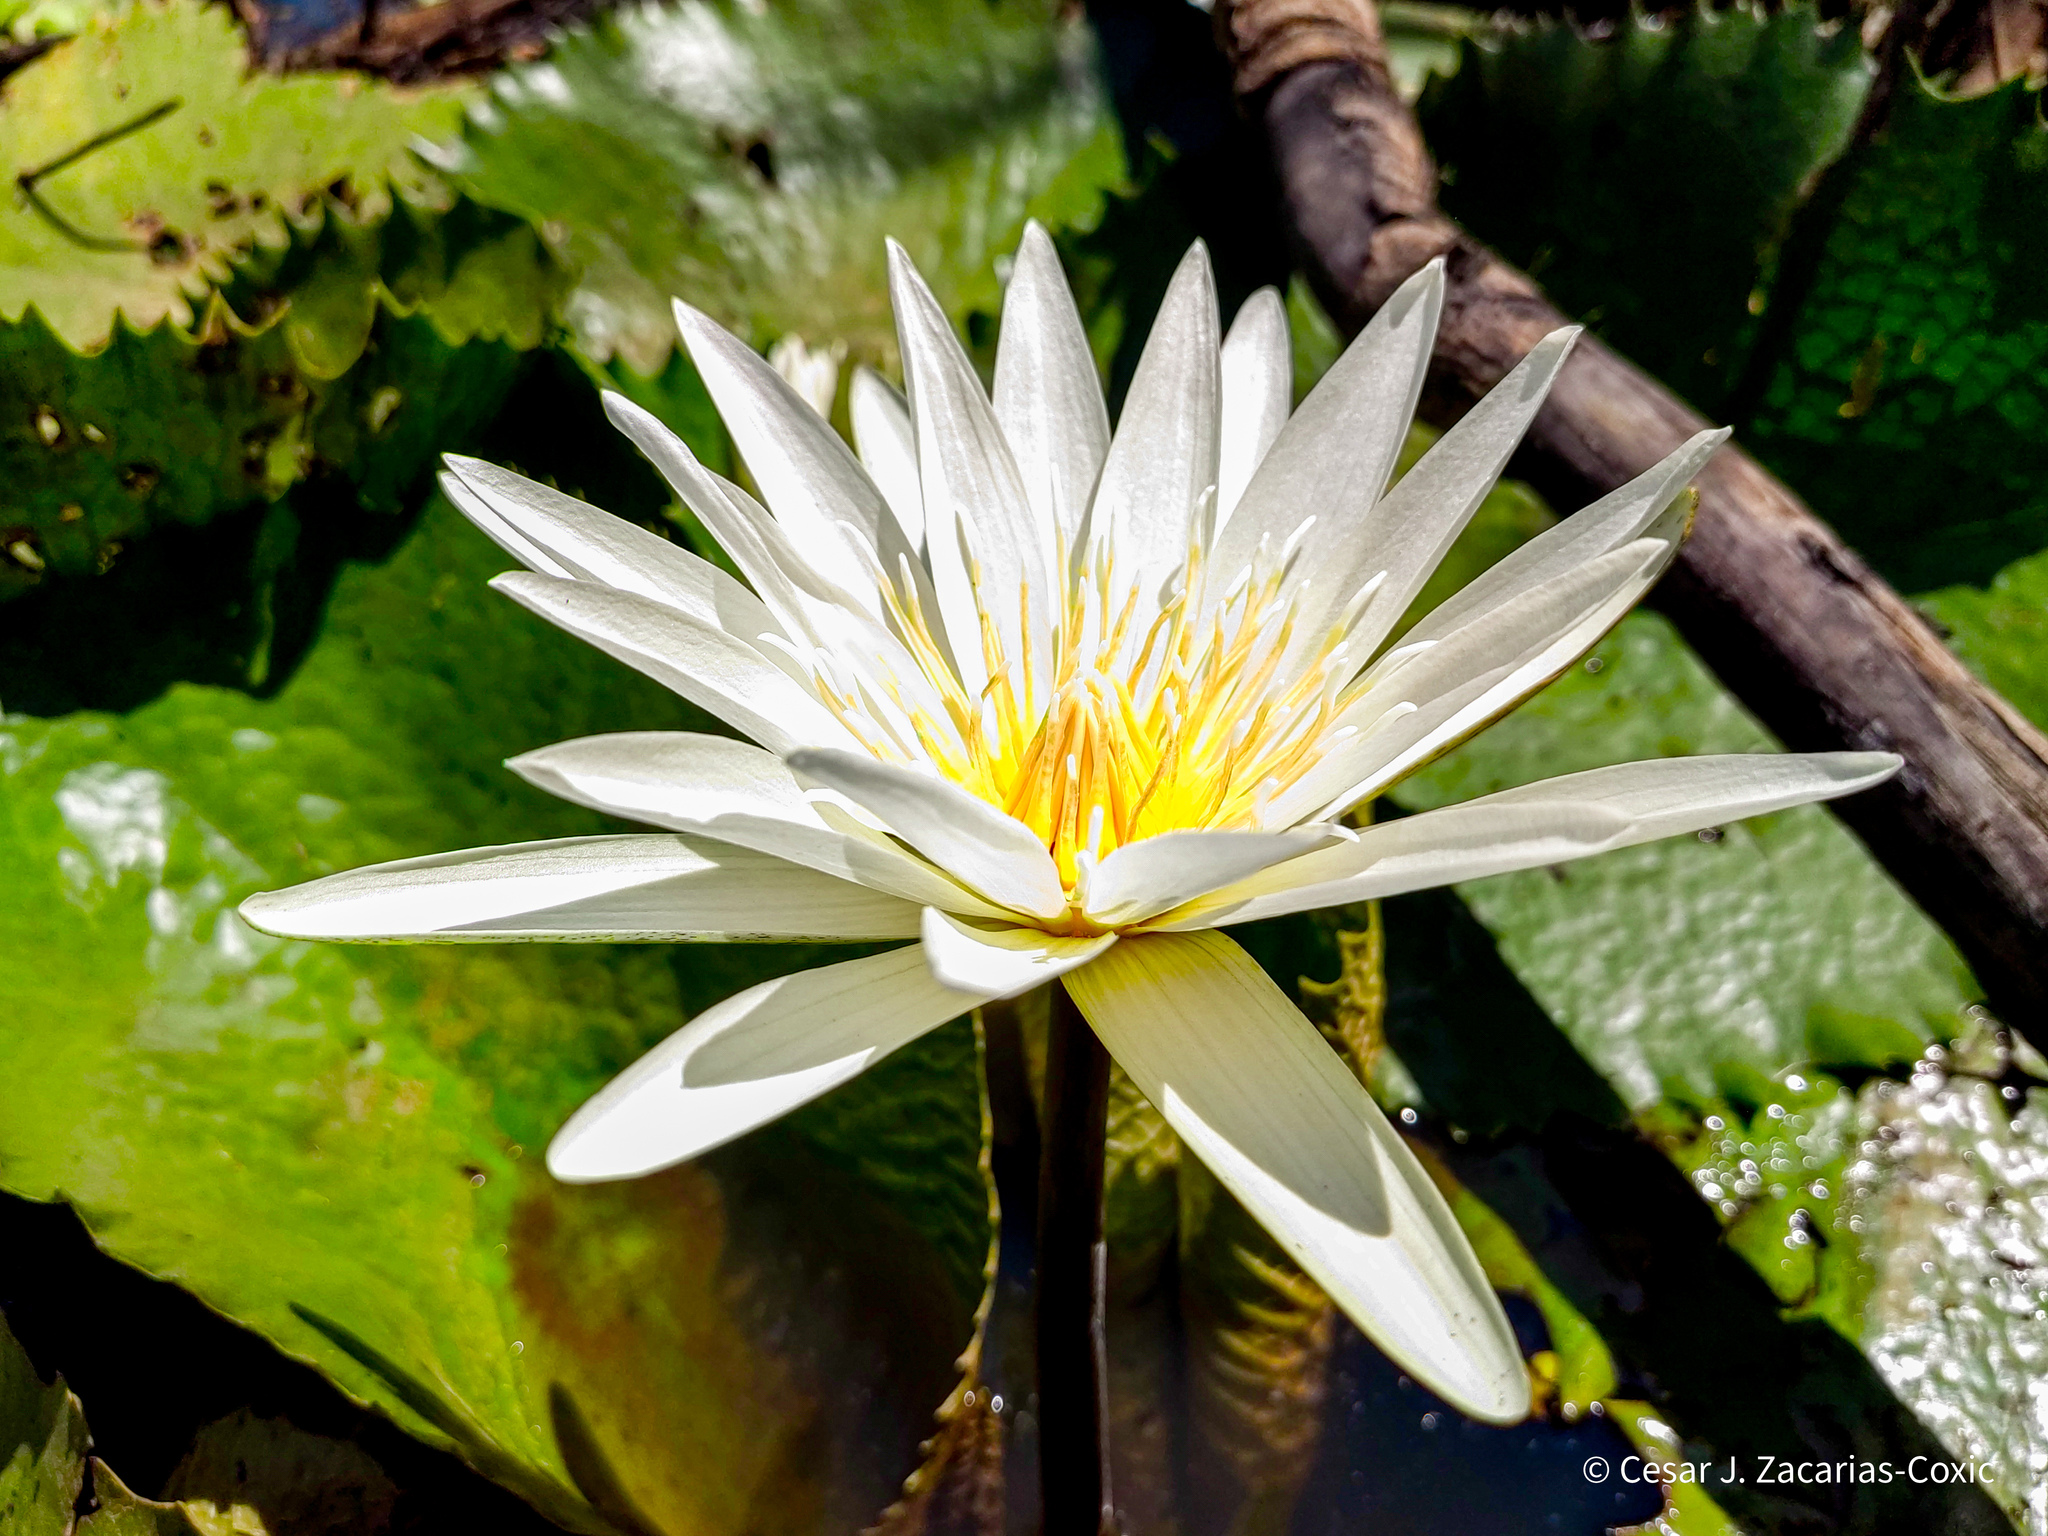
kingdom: Plantae
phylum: Tracheophyta
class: Magnoliopsida
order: Nymphaeales
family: Nymphaeaceae
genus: Nymphaea
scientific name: Nymphaea ampla
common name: Dotleaf waterlily
